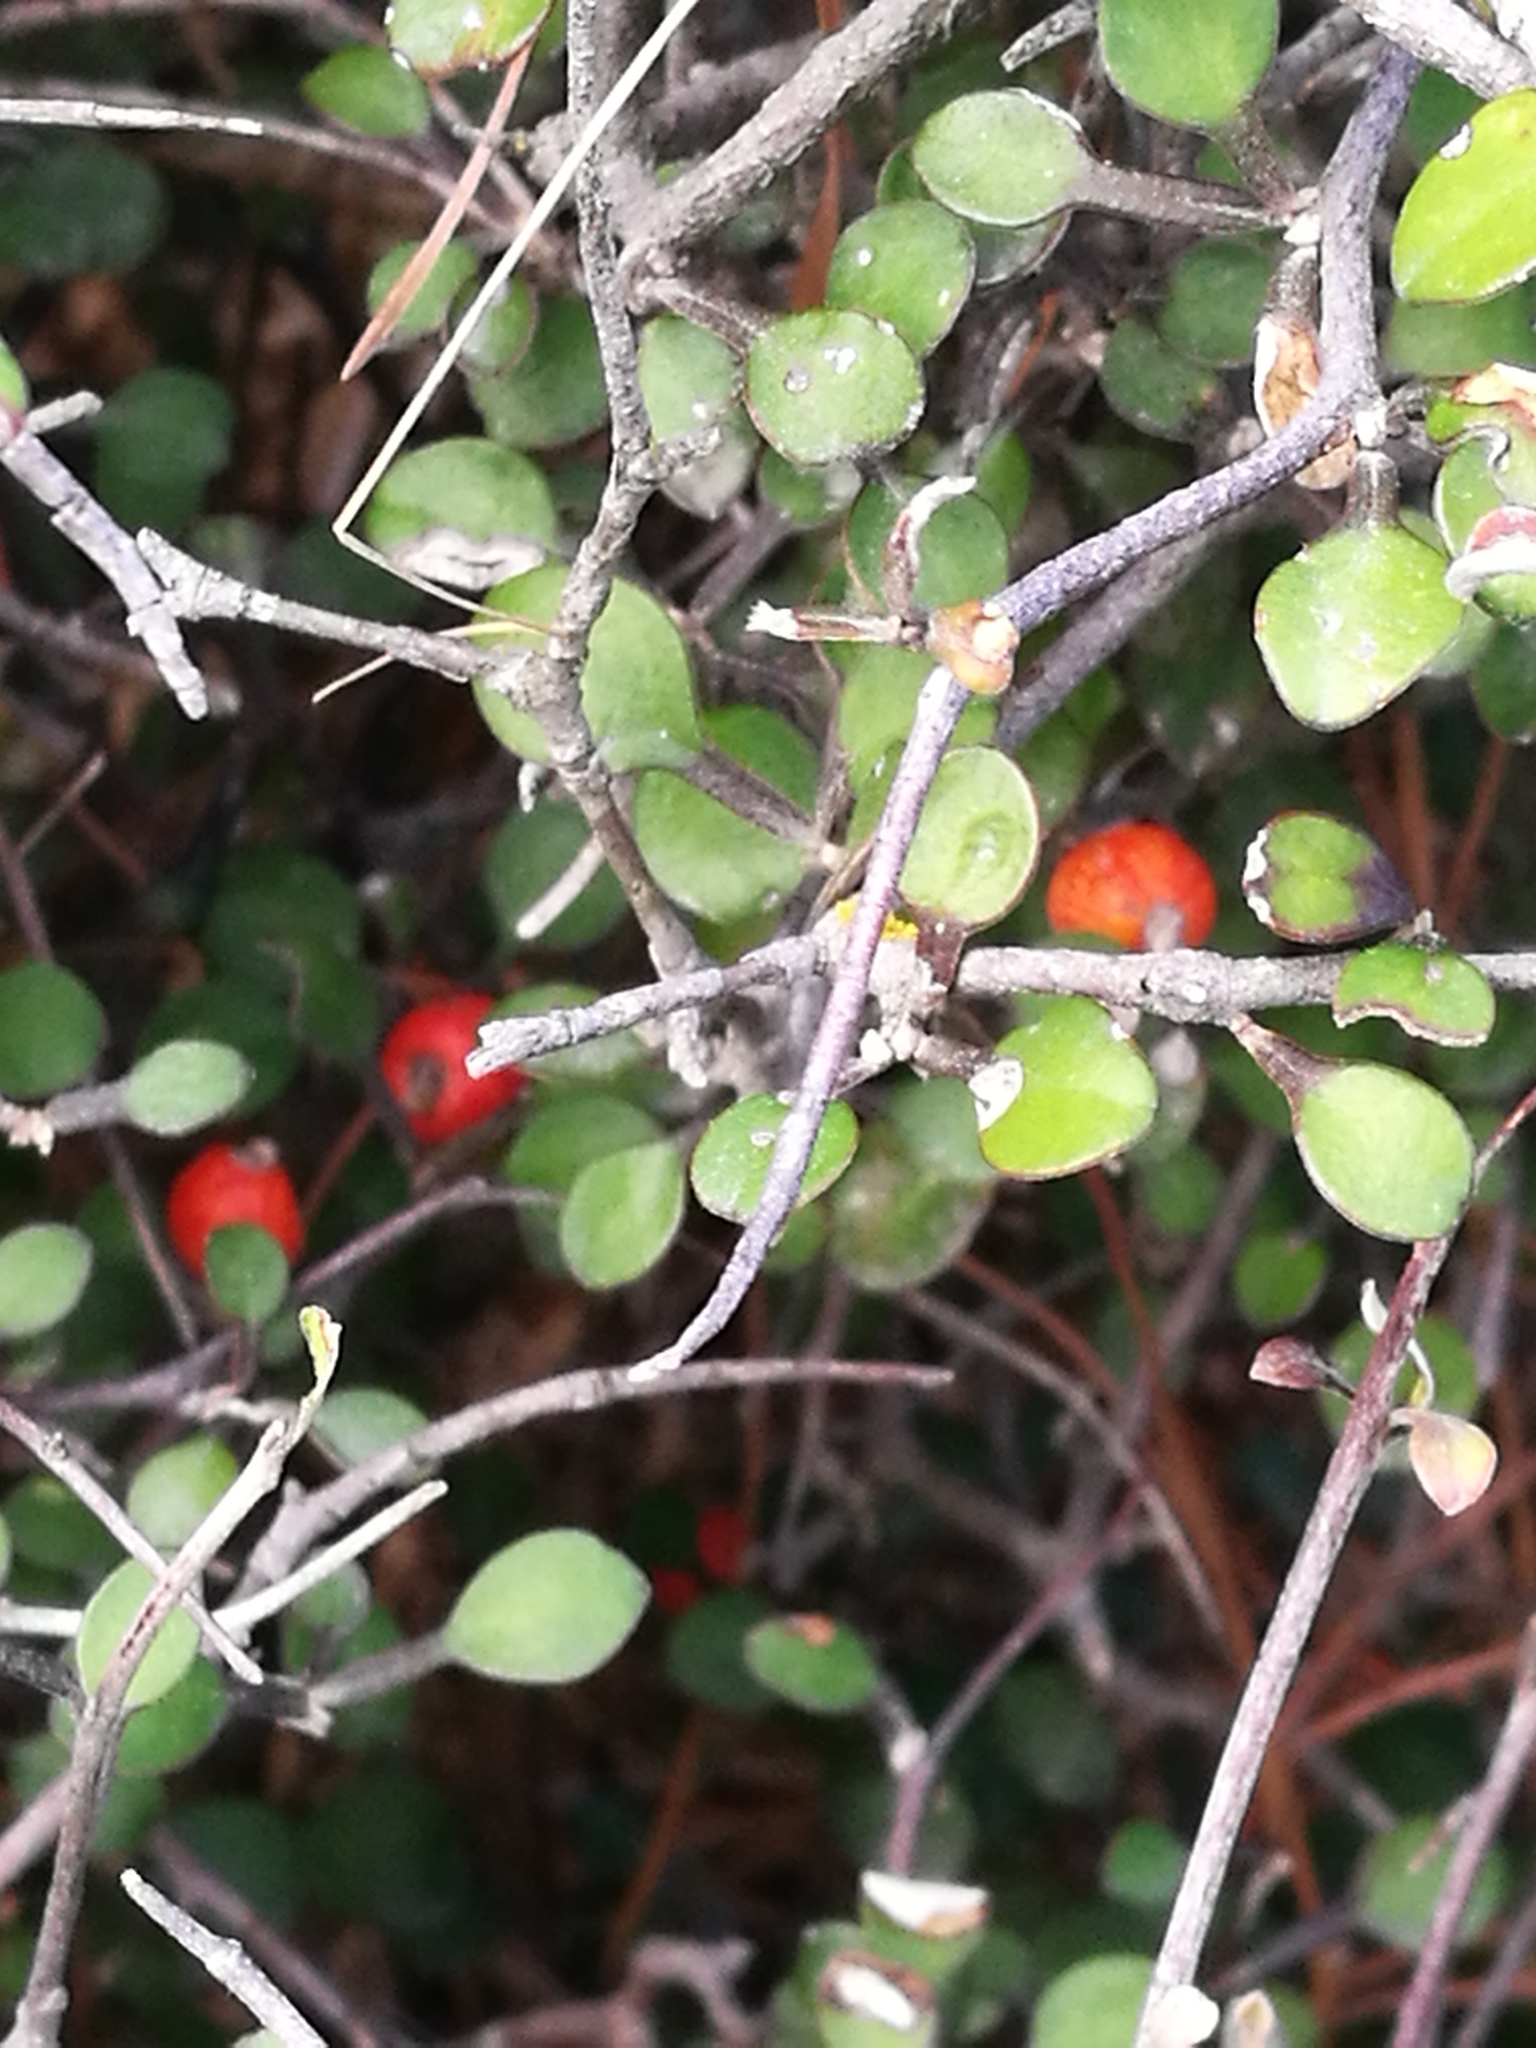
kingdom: Plantae
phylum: Tracheophyta
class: Magnoliopsida
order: Asterales
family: Argophyllaceae
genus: Corokia
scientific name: Corokia cotoneaster
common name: Wire nettingbush
